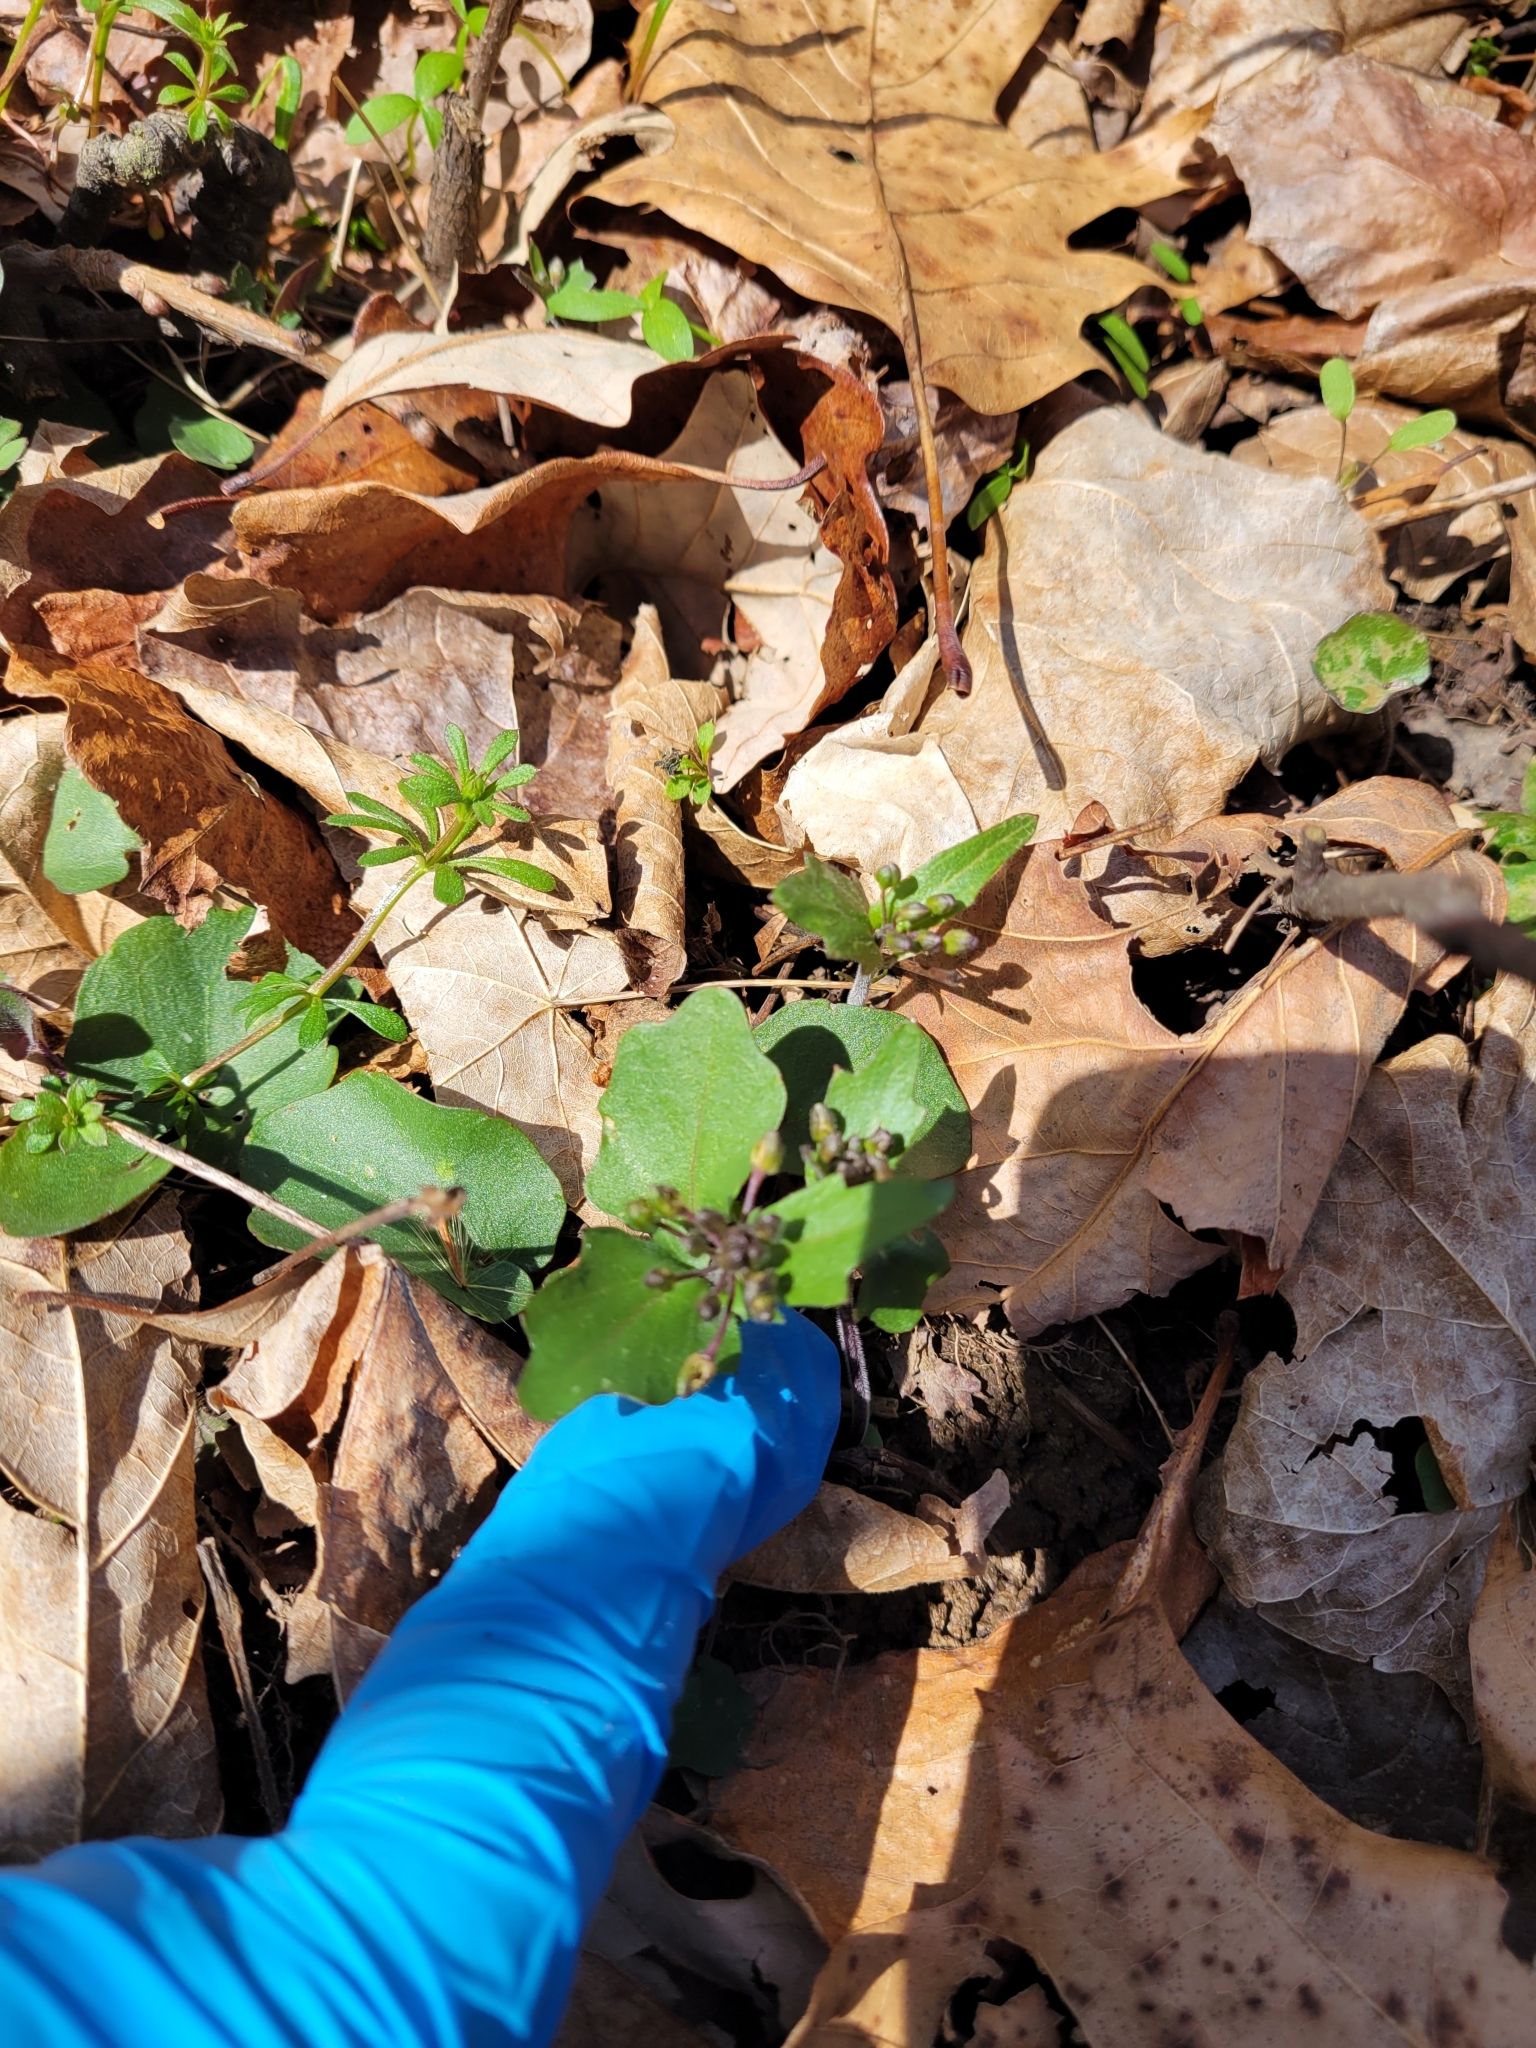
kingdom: Plantae
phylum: Tracheophyta
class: Magnoliopsida
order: Brassicales
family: Brassicaceae
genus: Cardamine
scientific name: Cardamine douglassii
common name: Purple cress
